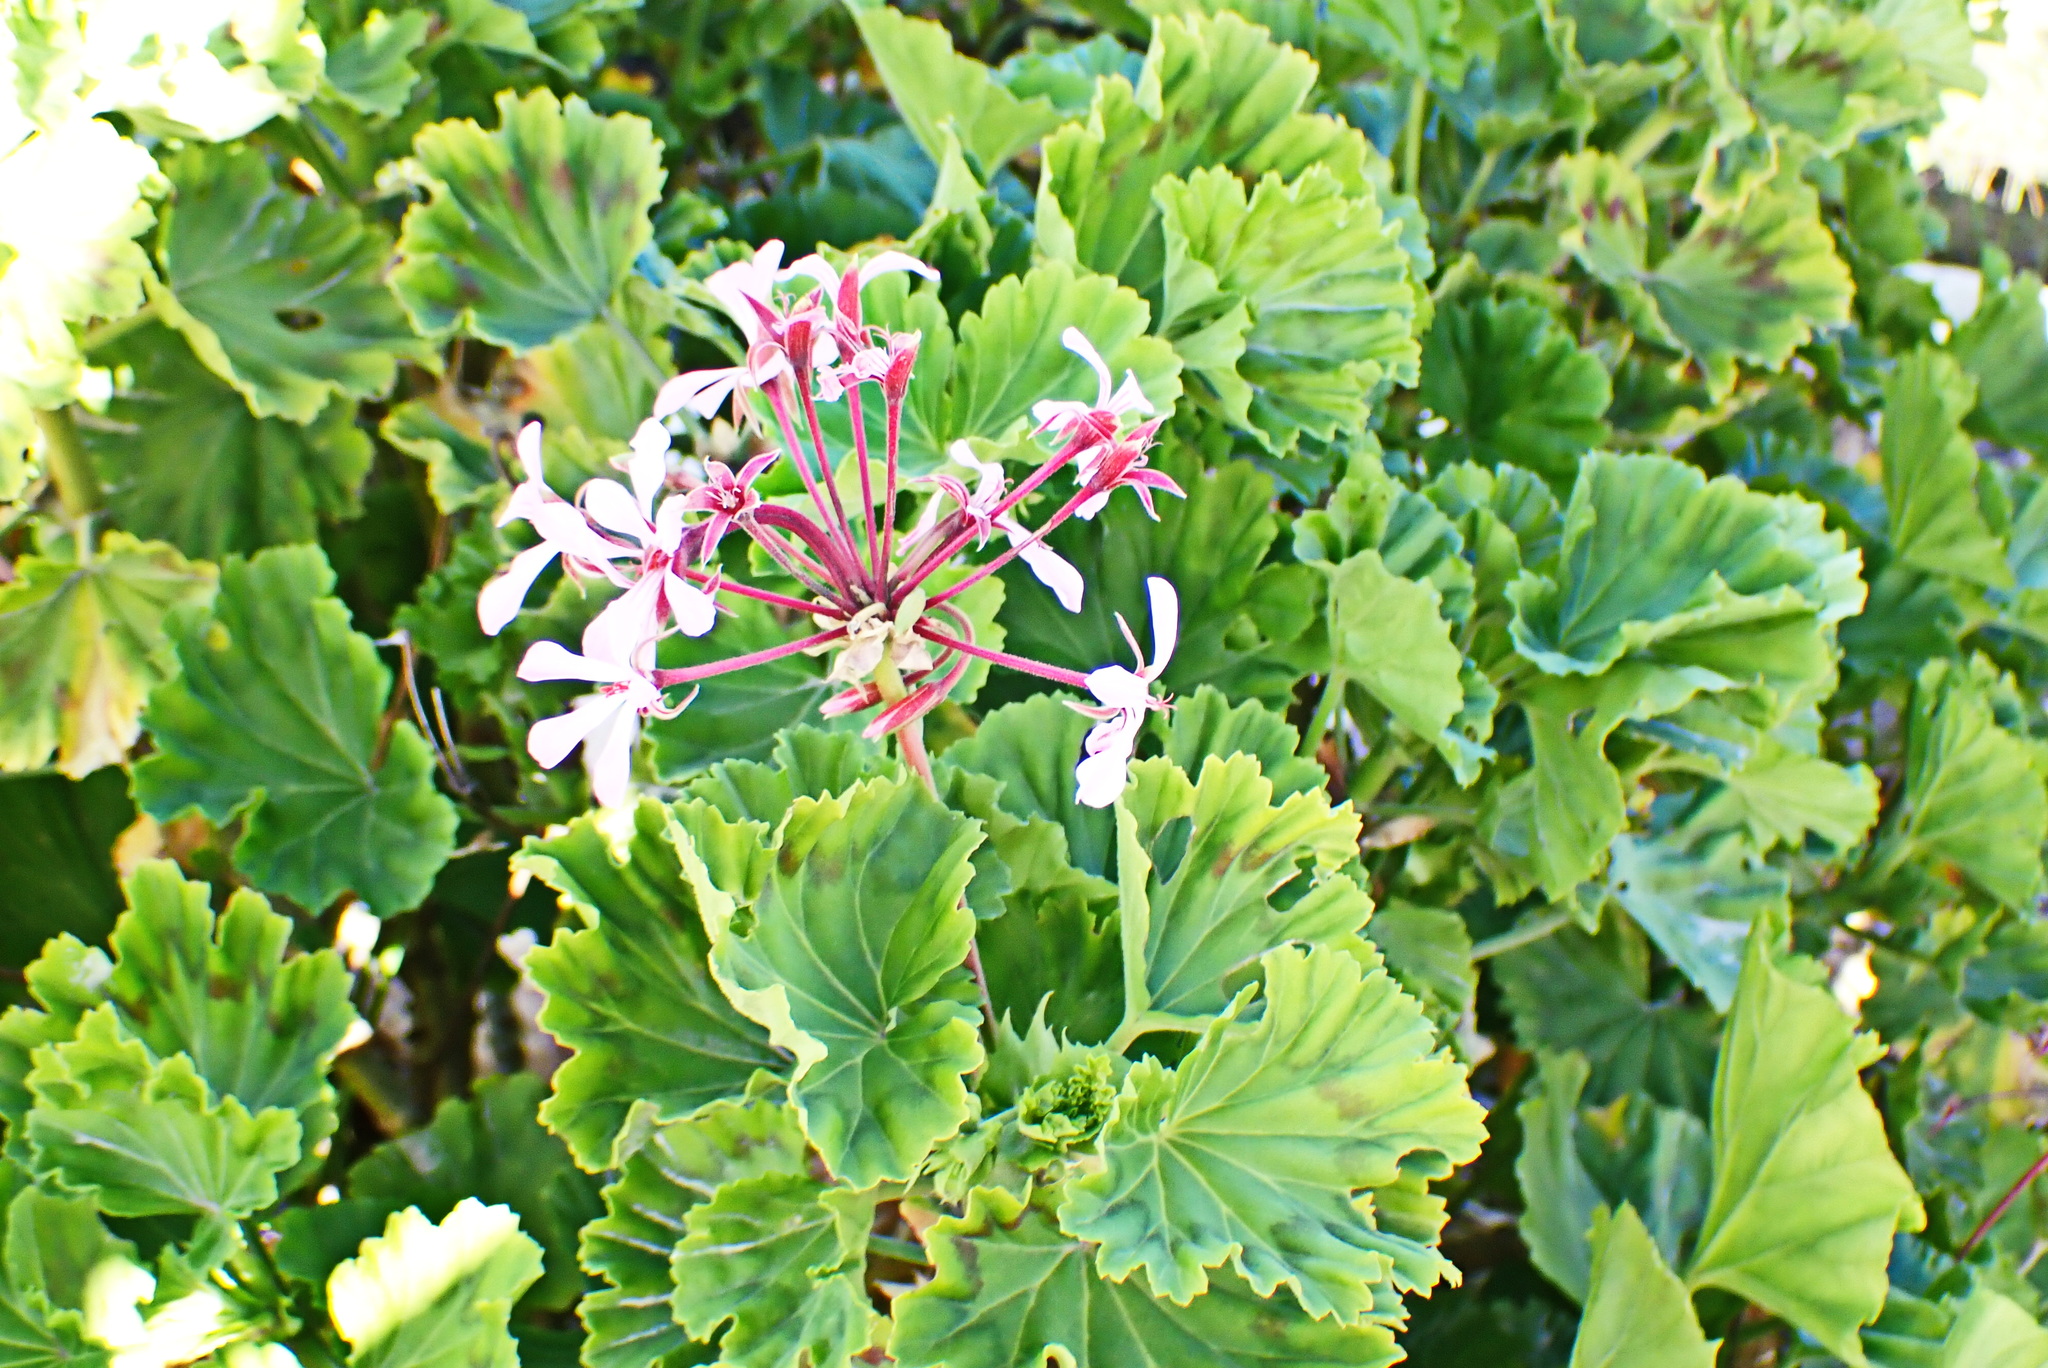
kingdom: Plantae
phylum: Tracheophyta
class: Magnoliopsida
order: Geraniales
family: Geraniaceae
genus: Pelargonium
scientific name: Pelargonium zonale
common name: Horseshoe geranium
